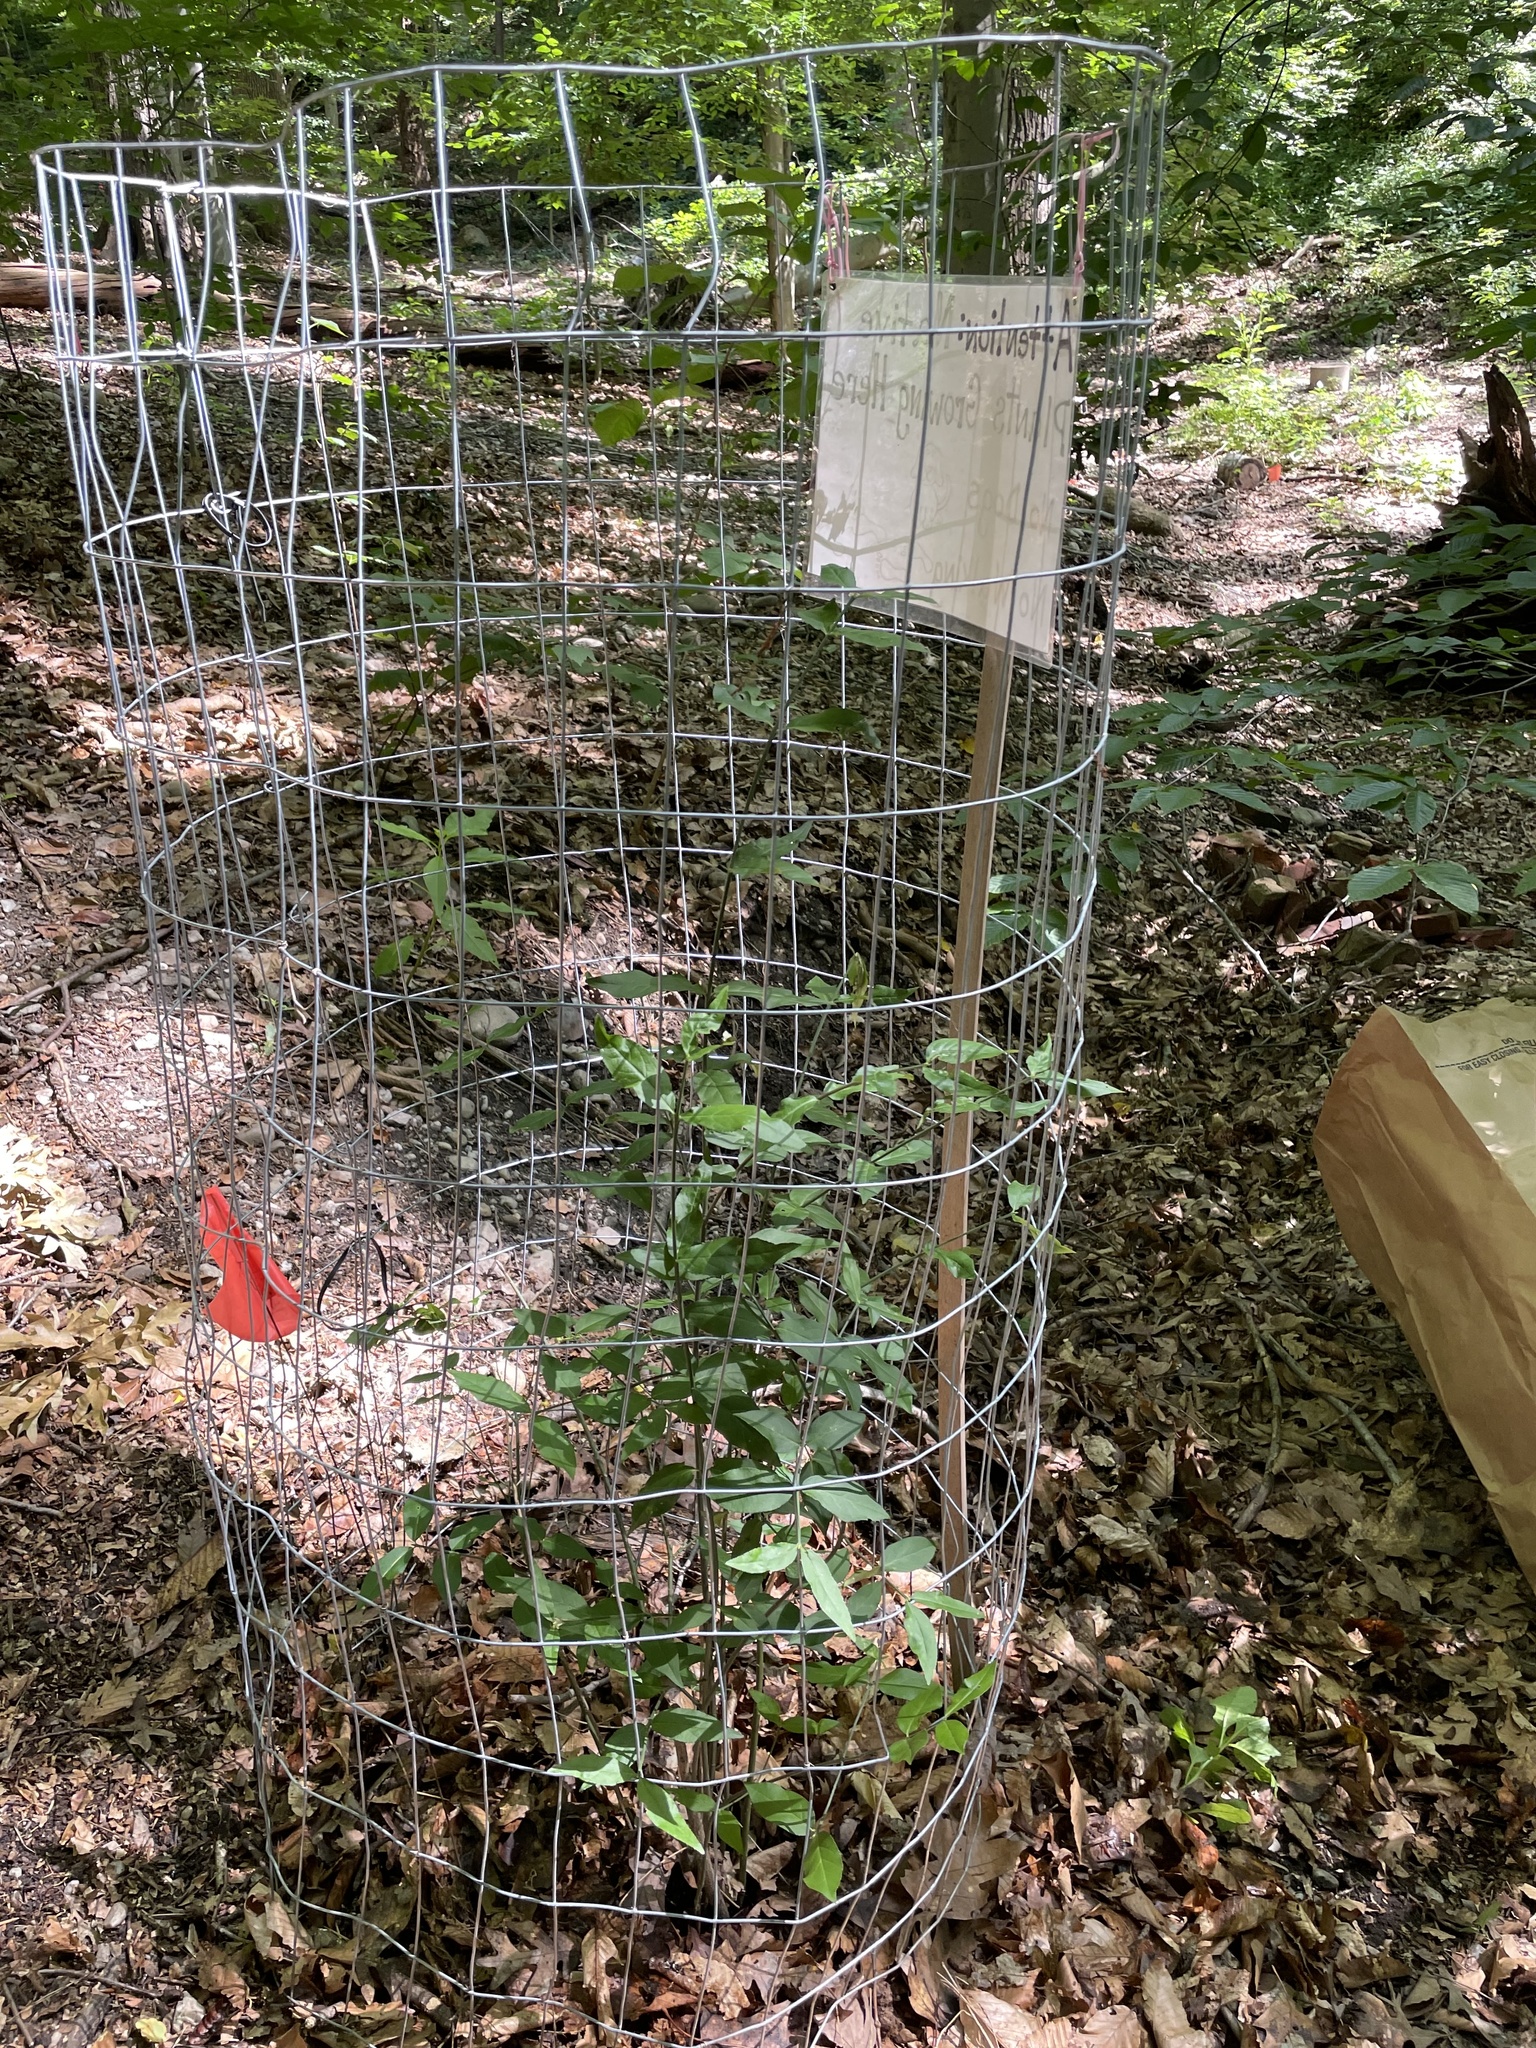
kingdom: Plantae
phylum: Tracheophyta
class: Magnoliopsida
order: Celastrales
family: Celastraceae
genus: Euonymus
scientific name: Euonymus americanus
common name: Bursting-heart
